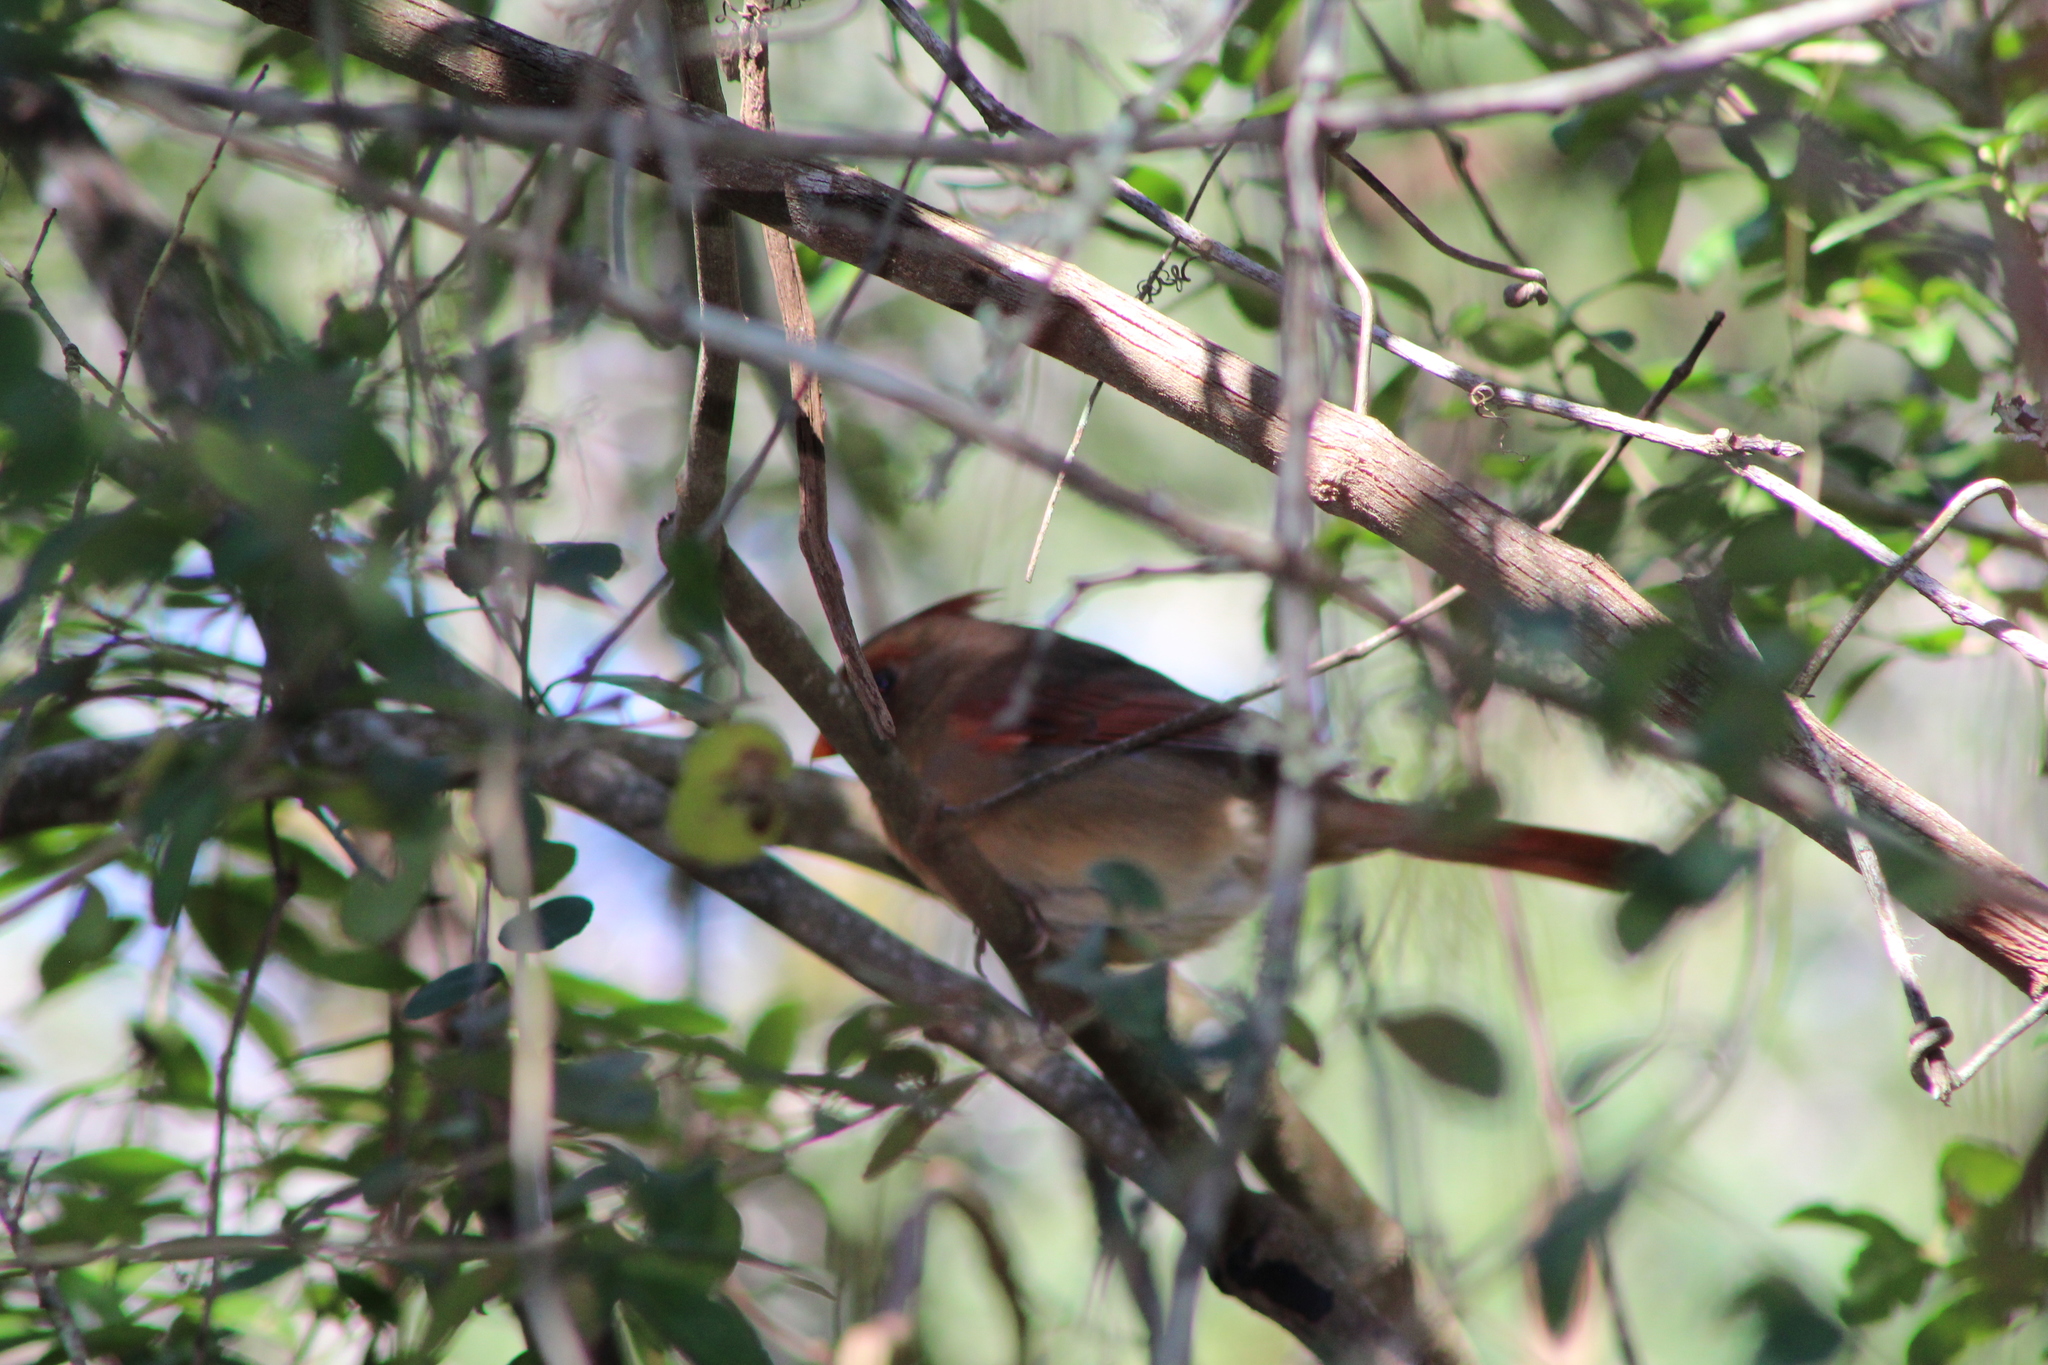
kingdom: Animalia
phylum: Chordata
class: Aves
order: Passeriformes
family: Cardinalidae
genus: Cardinalis
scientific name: Cardinalis cardinalis
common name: Northern cardinal
